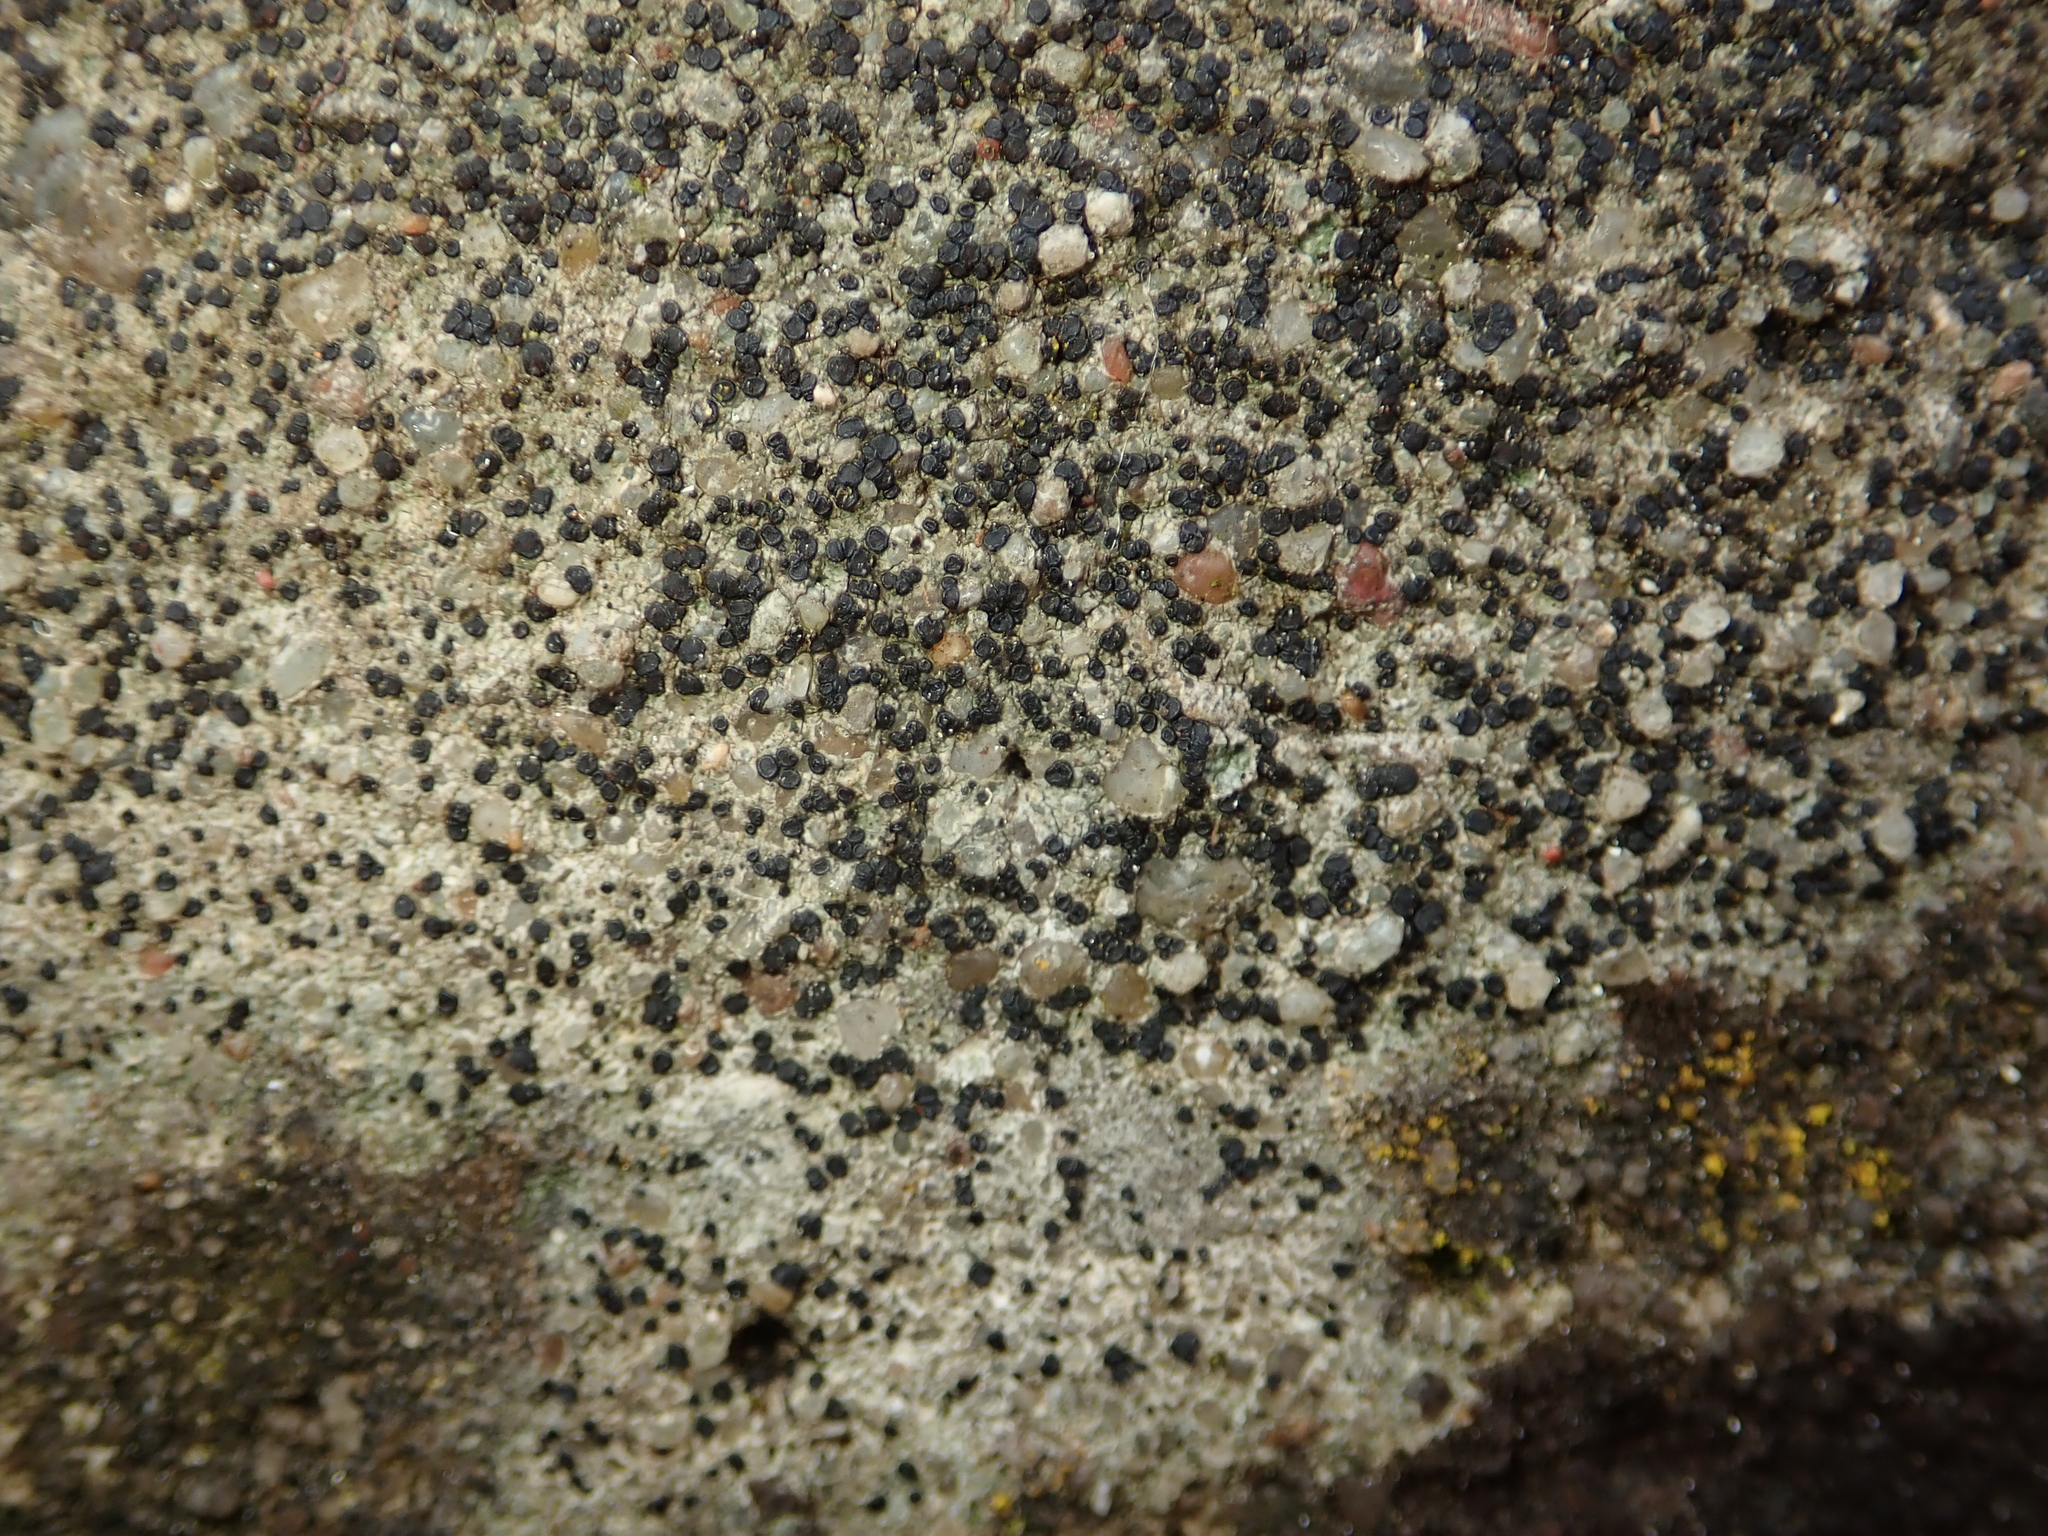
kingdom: Fungi
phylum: Ascomycota
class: Lecanoromycetes
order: Lecanorales
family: Lecanoraceae
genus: Lecidella
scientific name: Lecidella stigmatea
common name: Limestone disc lichen
